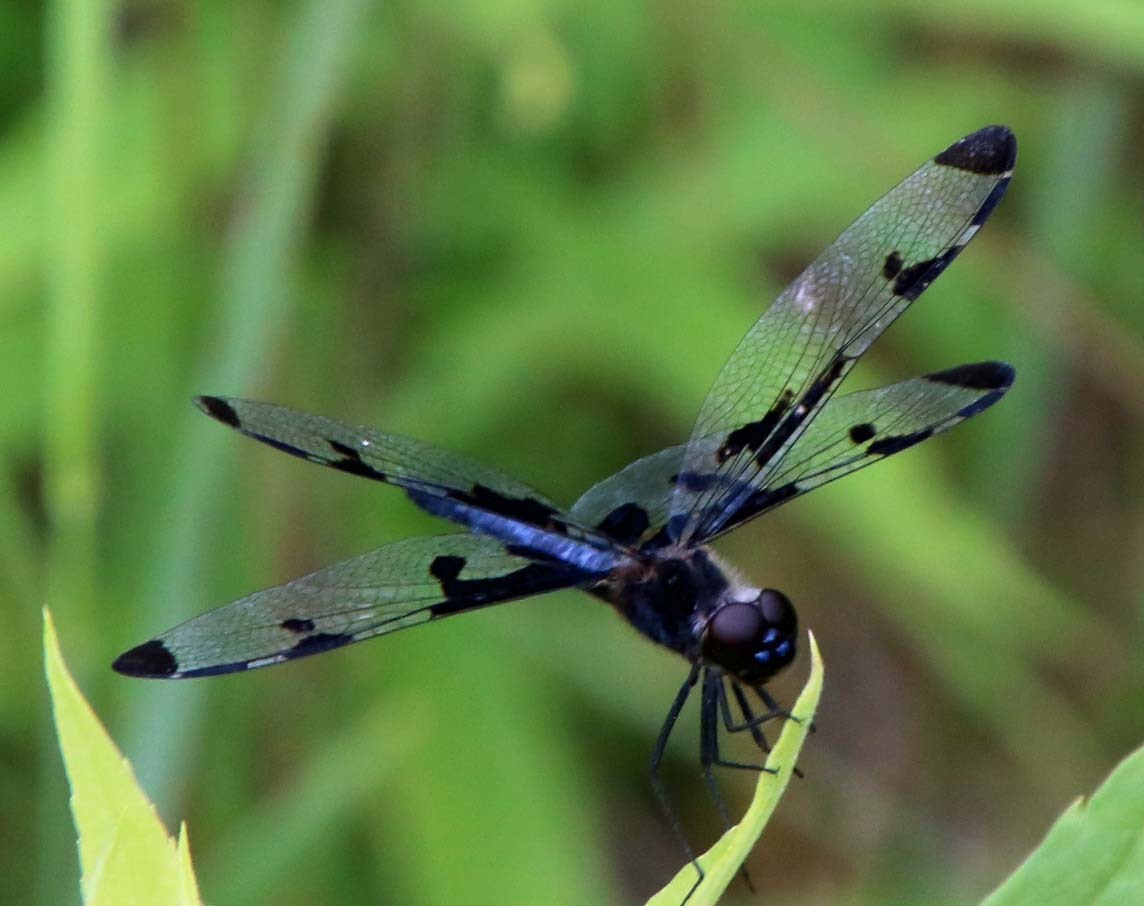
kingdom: Animalia
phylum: Arthropoda
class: Insecta
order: Odonata
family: Libellulidae
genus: Celithemis
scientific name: Celithemis fasciata
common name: Banded pennant
